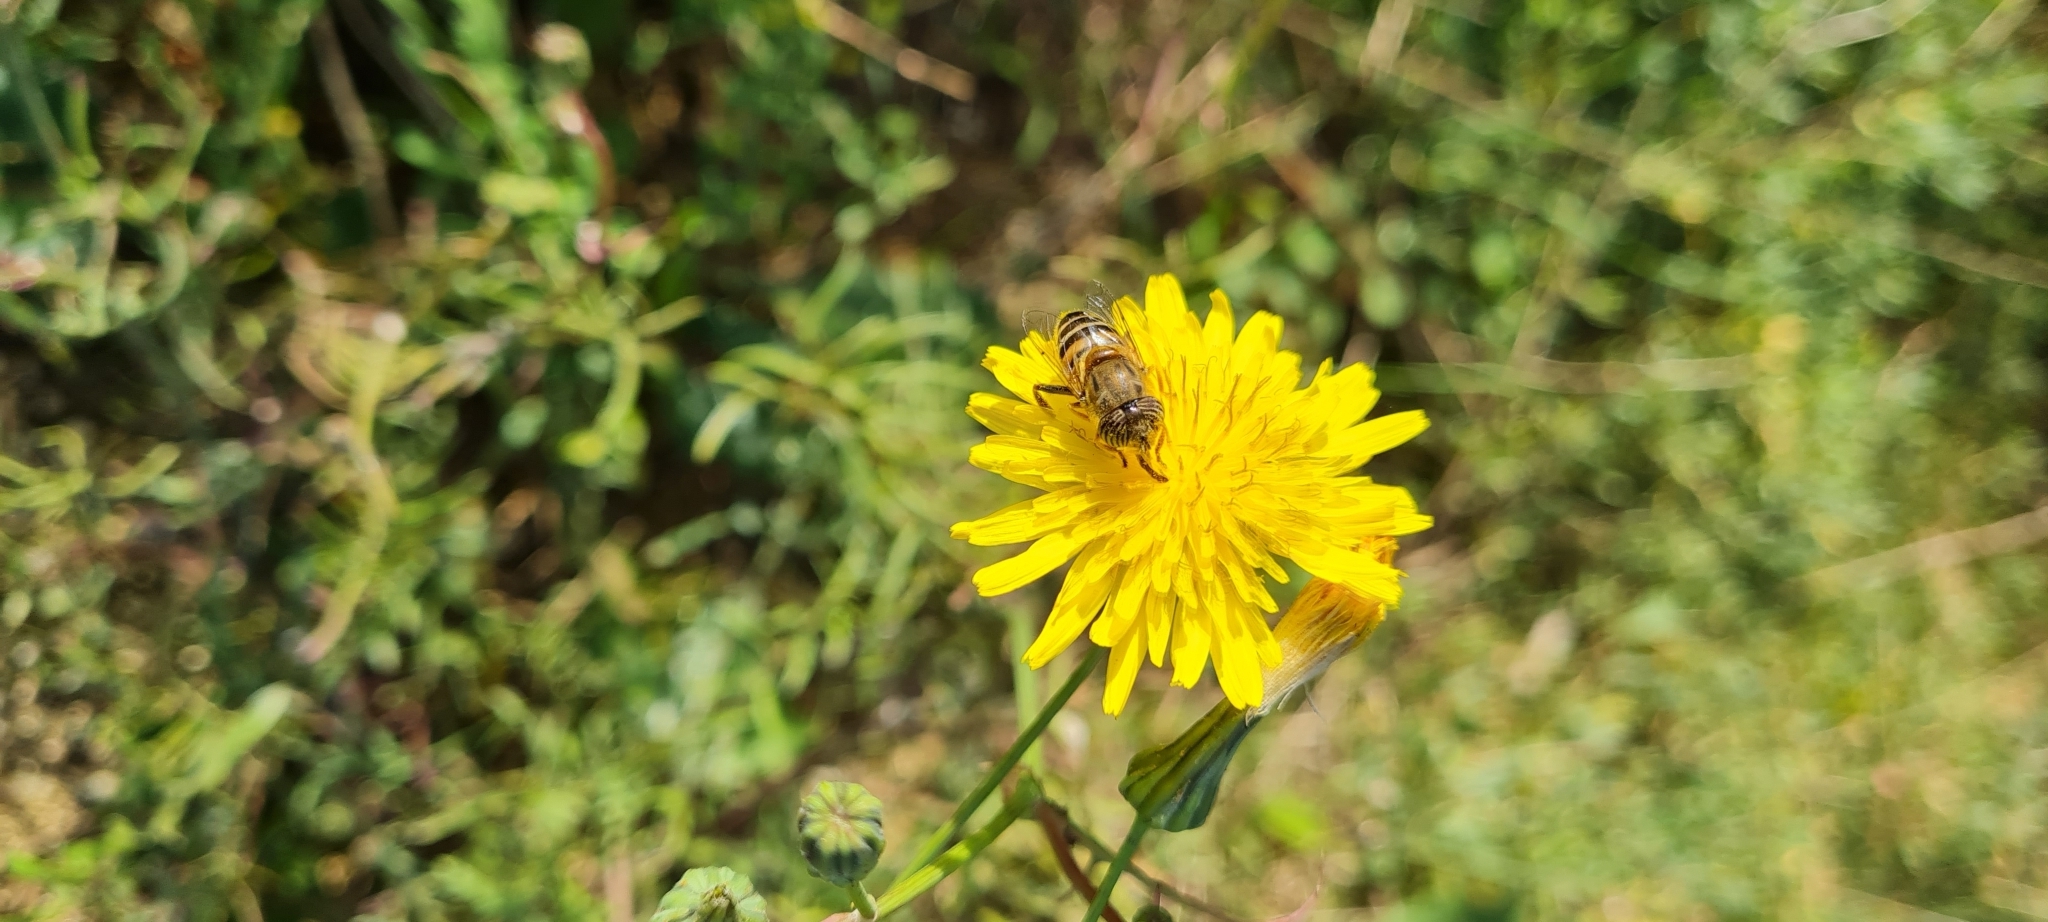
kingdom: Animalia
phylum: Arthropoda
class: Insecta
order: Diptera
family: Syrphidae
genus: Eristalinus
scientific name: Eristalinus taeniops
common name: Syrphid fly
